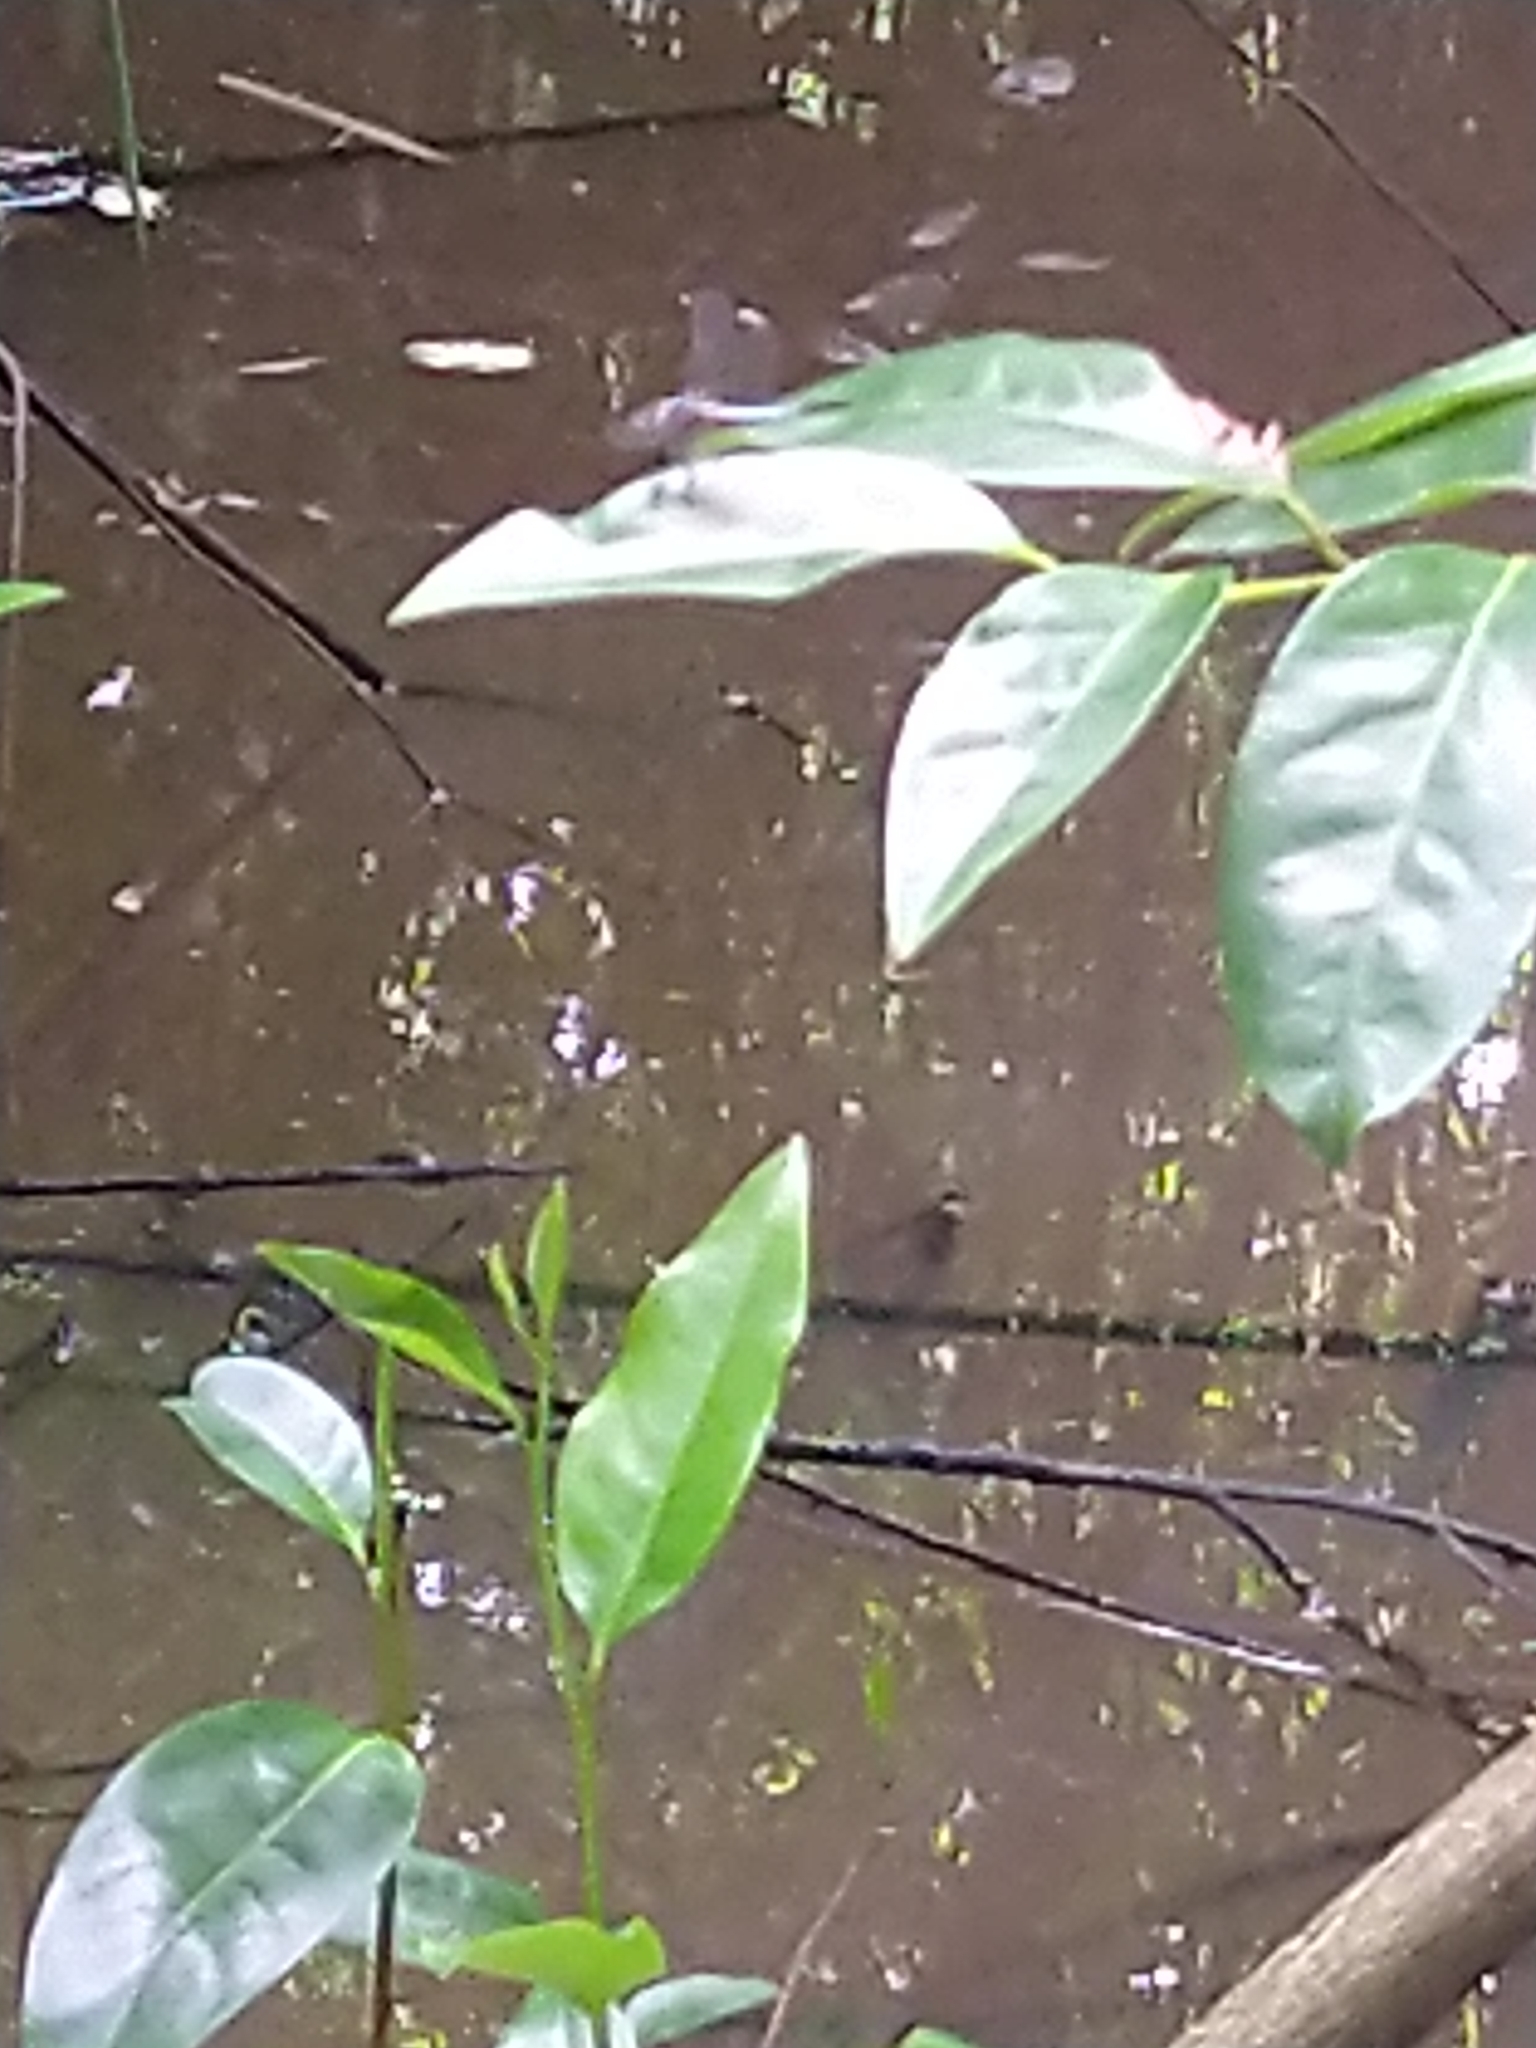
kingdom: Animalia
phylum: Arthropoda
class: Insecta
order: Odonata
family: Libellulidae
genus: Brachydiplax
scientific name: Brachydiplax chalybea
